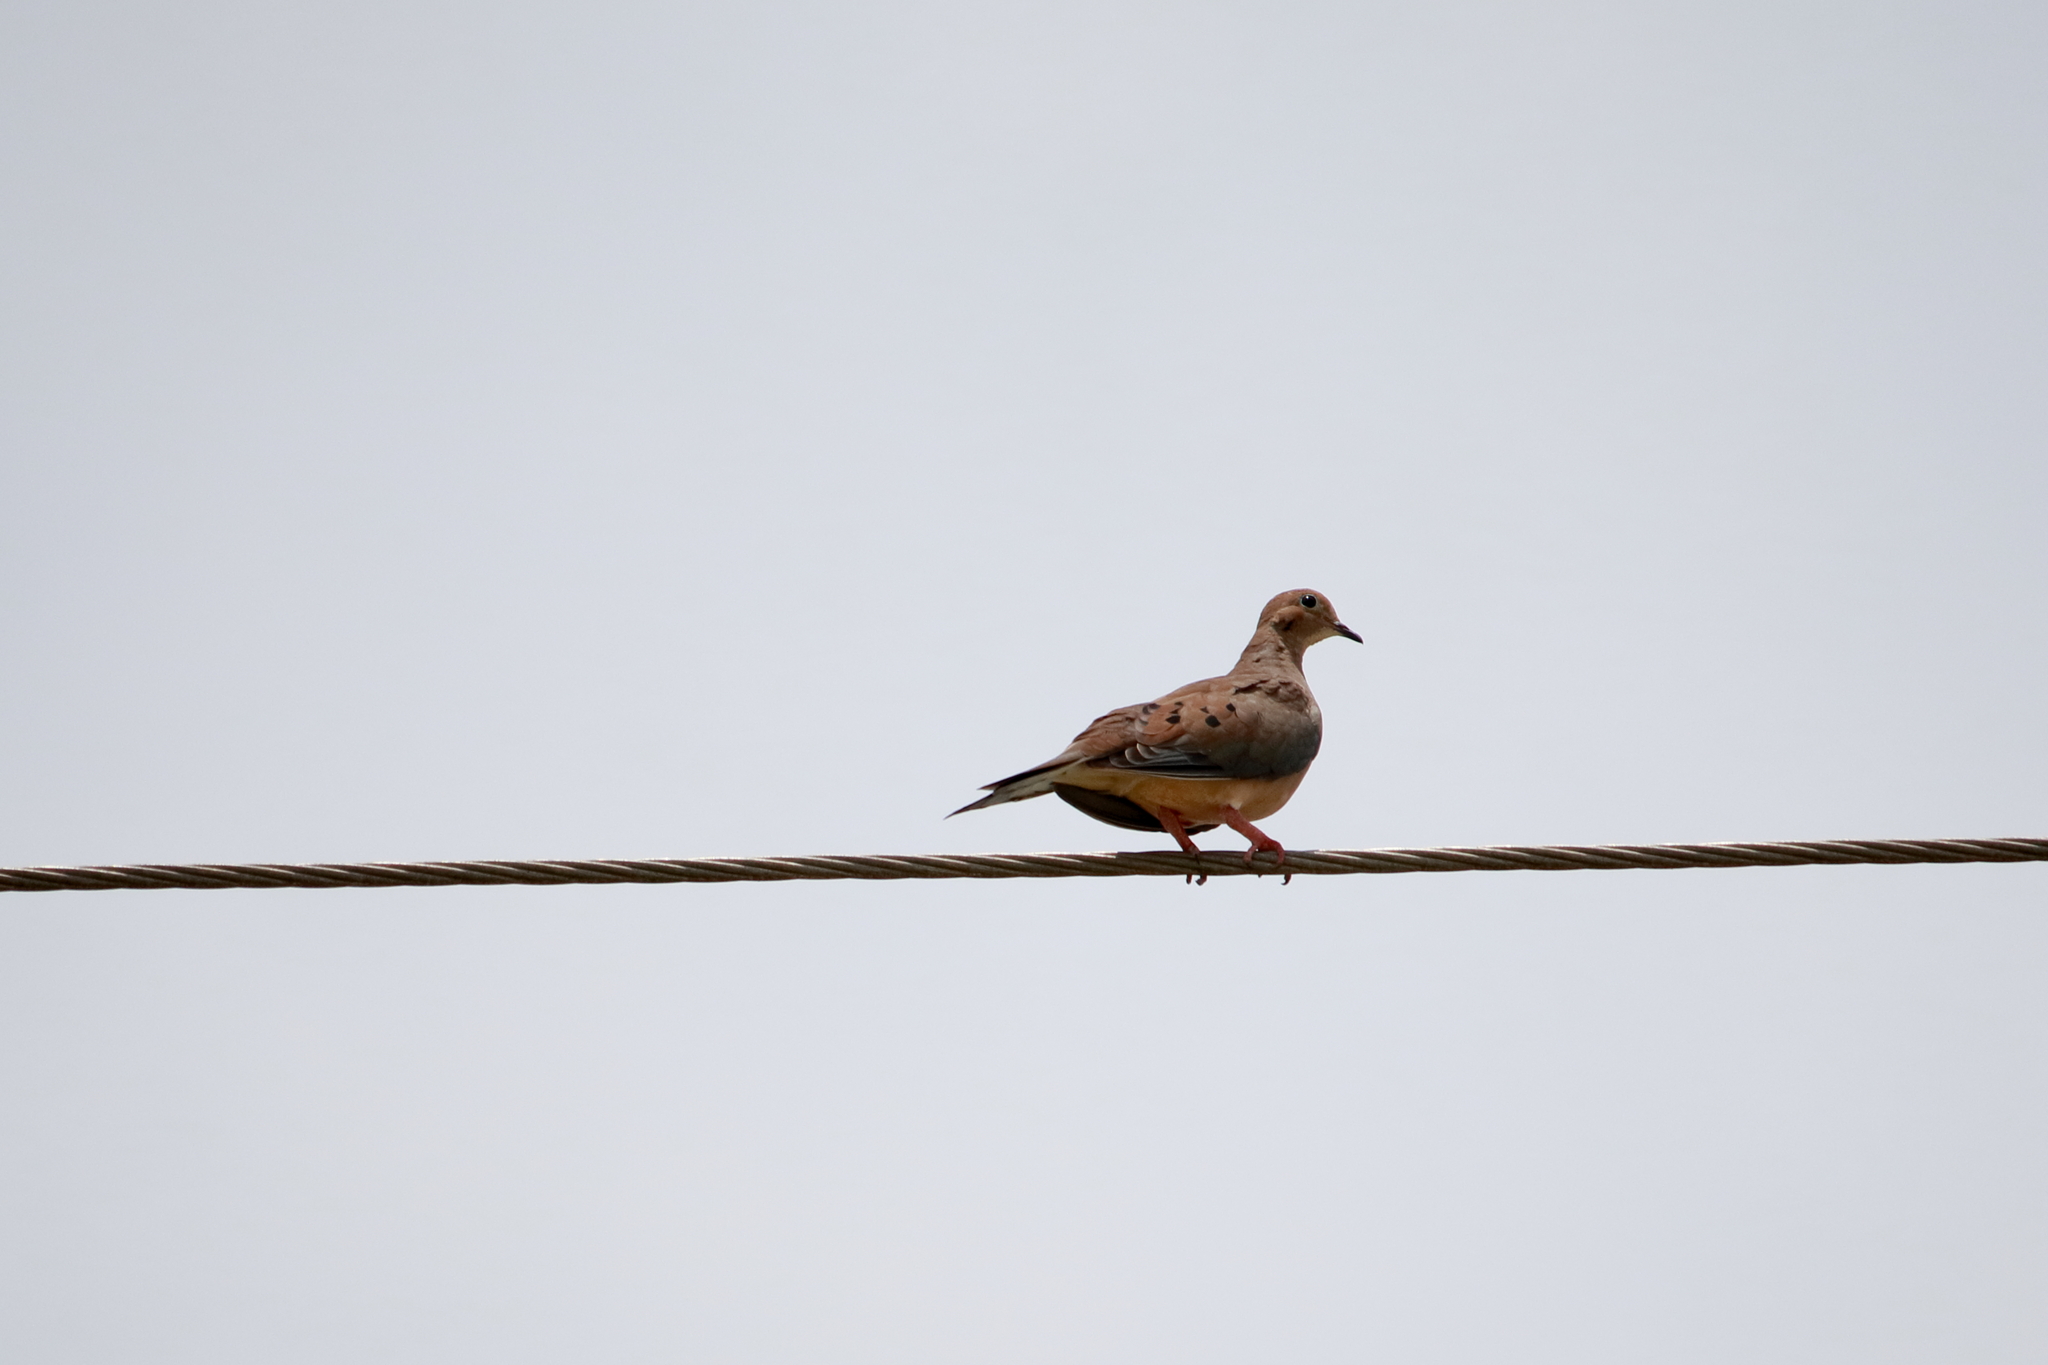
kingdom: Animalia
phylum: Chordata
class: Aves
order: Columbiformes
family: Columbidae
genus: Zenaida
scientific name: Zenaida macroura
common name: Mourning dove
